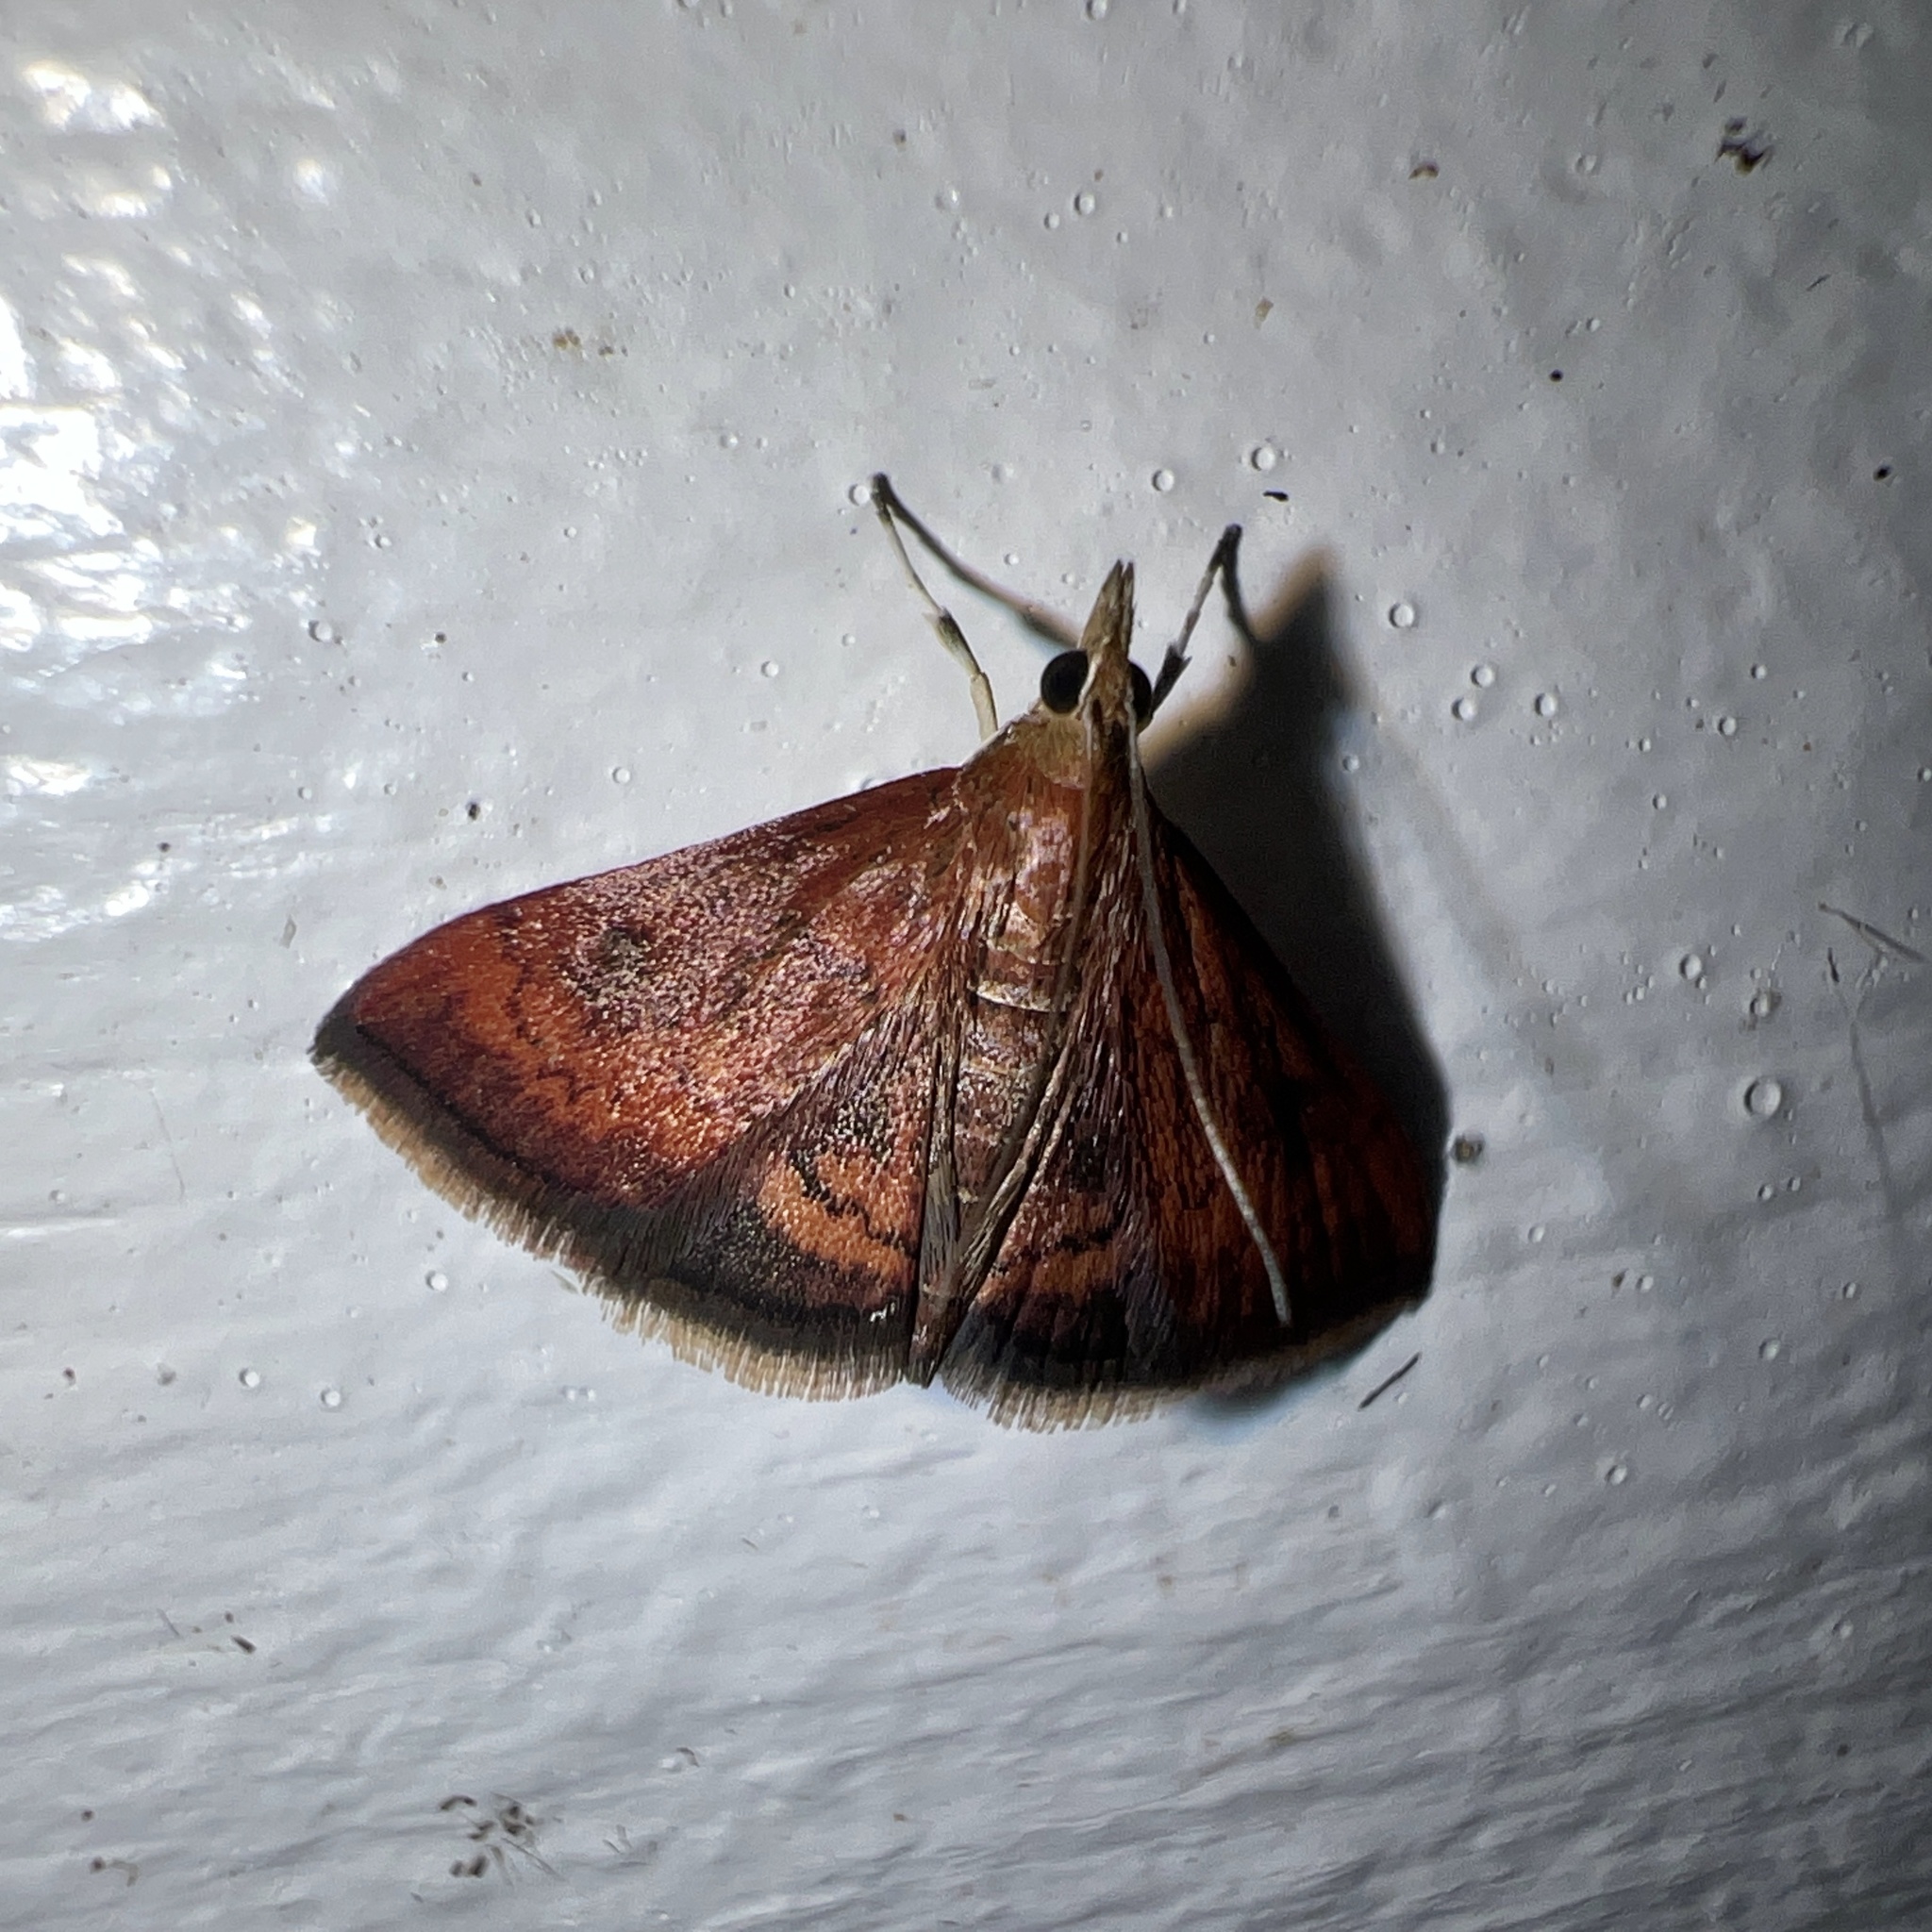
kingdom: Animalia
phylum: Arthropoda
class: Insecta
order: Lepidoptera
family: Crambidae
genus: Pyrausta
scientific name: Pyrausta rubricalis
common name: Variable reddish pyrausta
